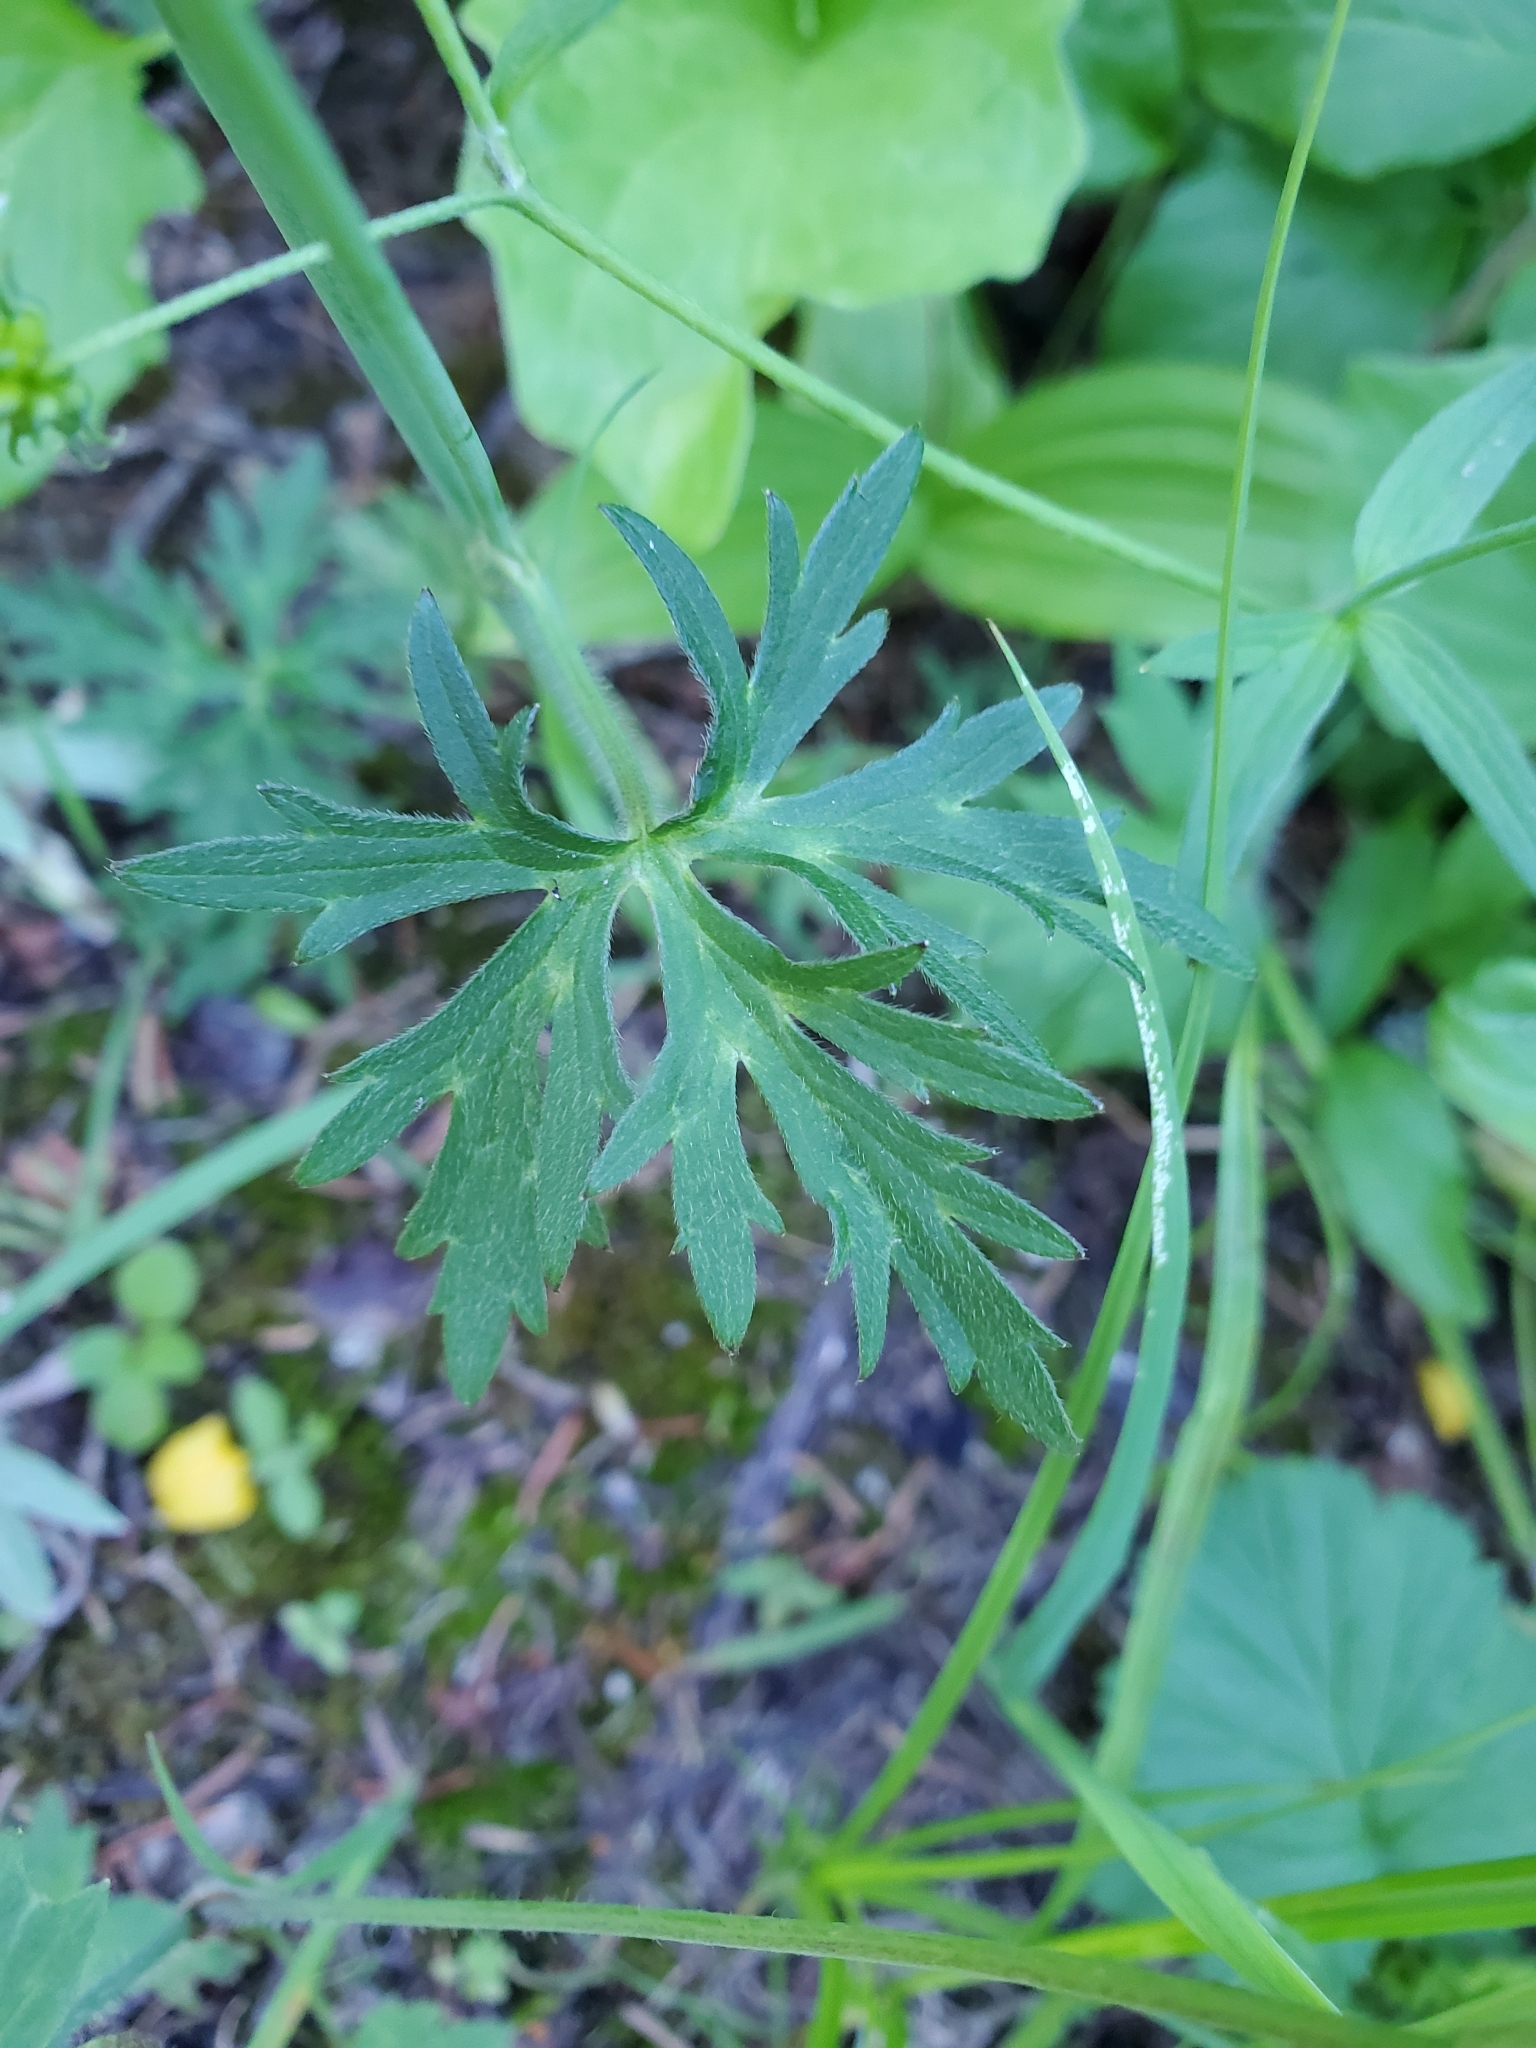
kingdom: Plantae
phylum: Tracheophyta
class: Magnoliopsida
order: Ranunculales
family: Ranunculaceae
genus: Ranunculus
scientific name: Ranunculus acris
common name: Meadow buttercup
